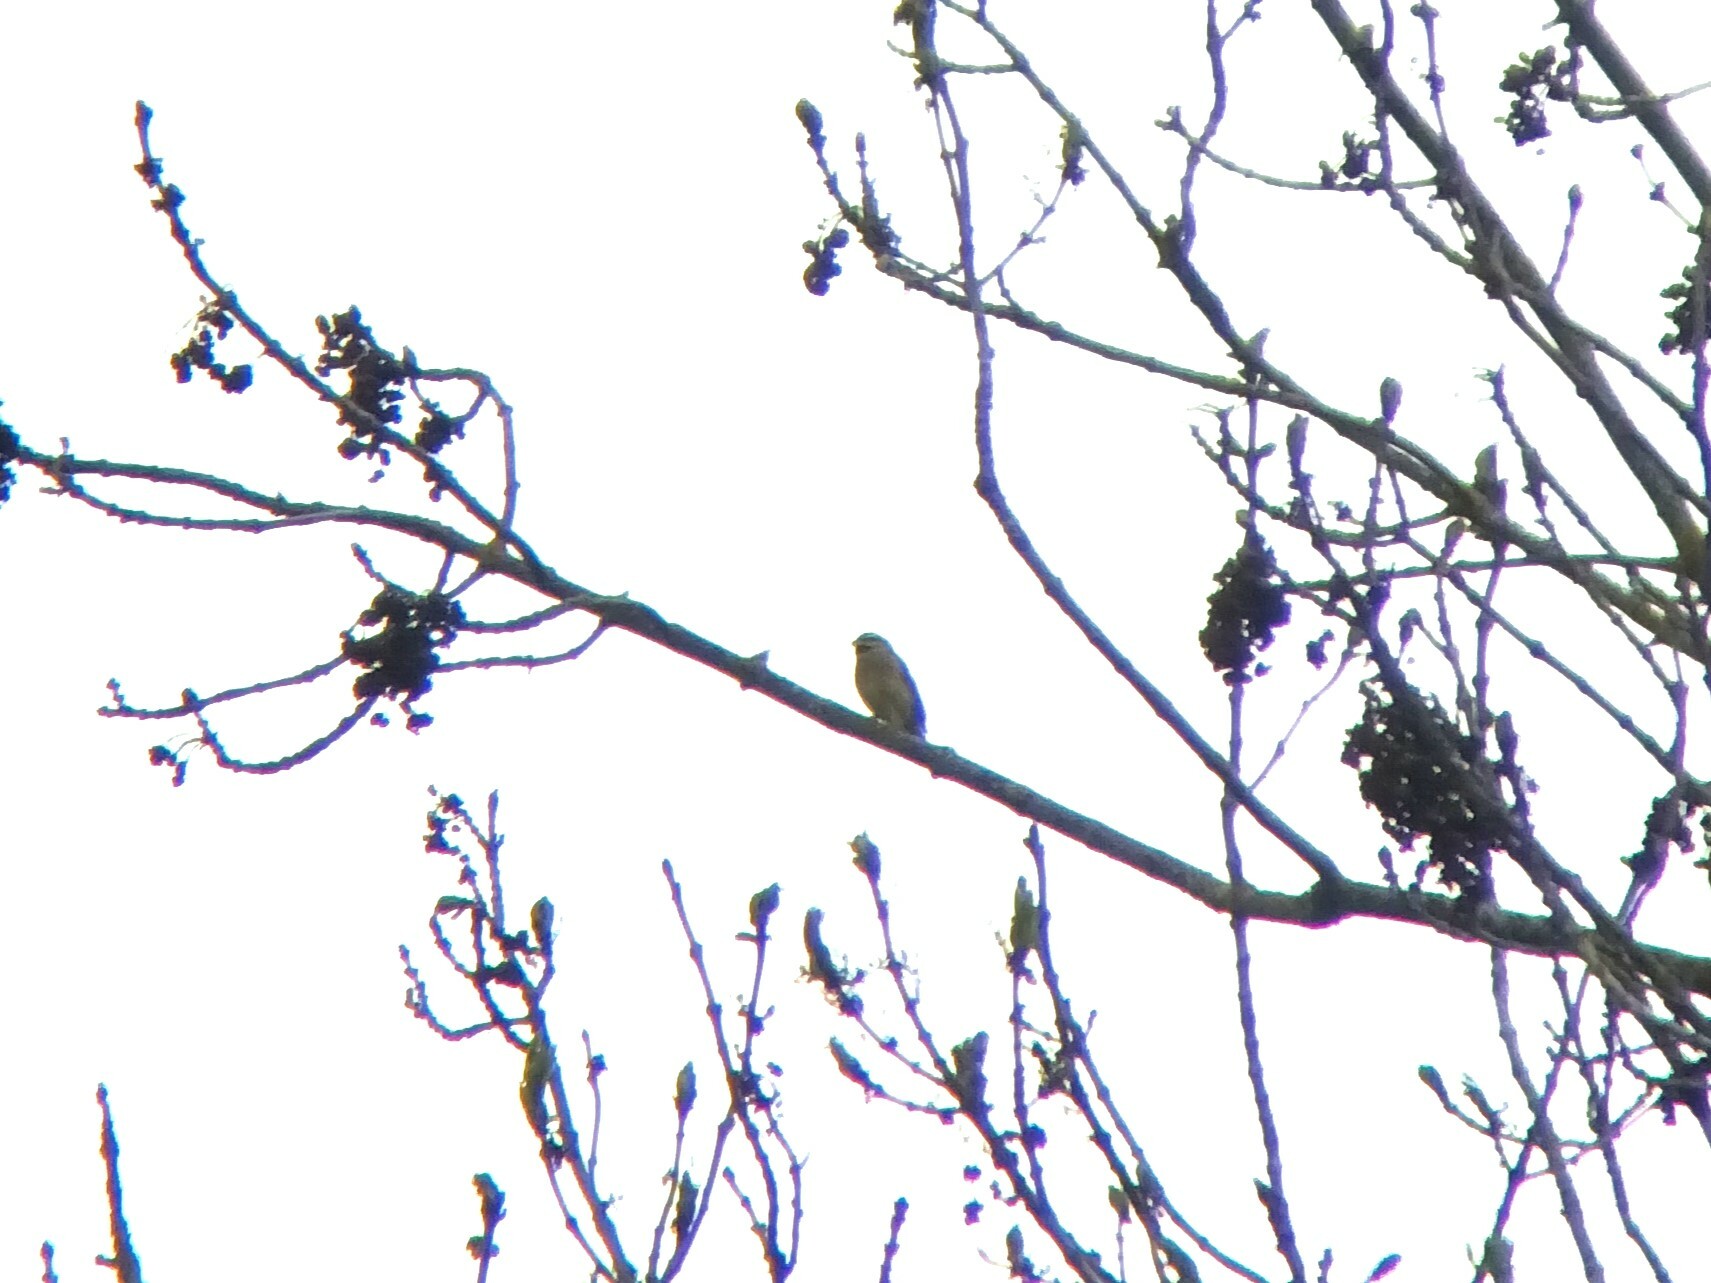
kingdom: Animalia
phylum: Chordata
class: Aves
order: Passeriformes
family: Emberizidae
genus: Emberiza
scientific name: Emberiza cirlus
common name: Cirl bunting
